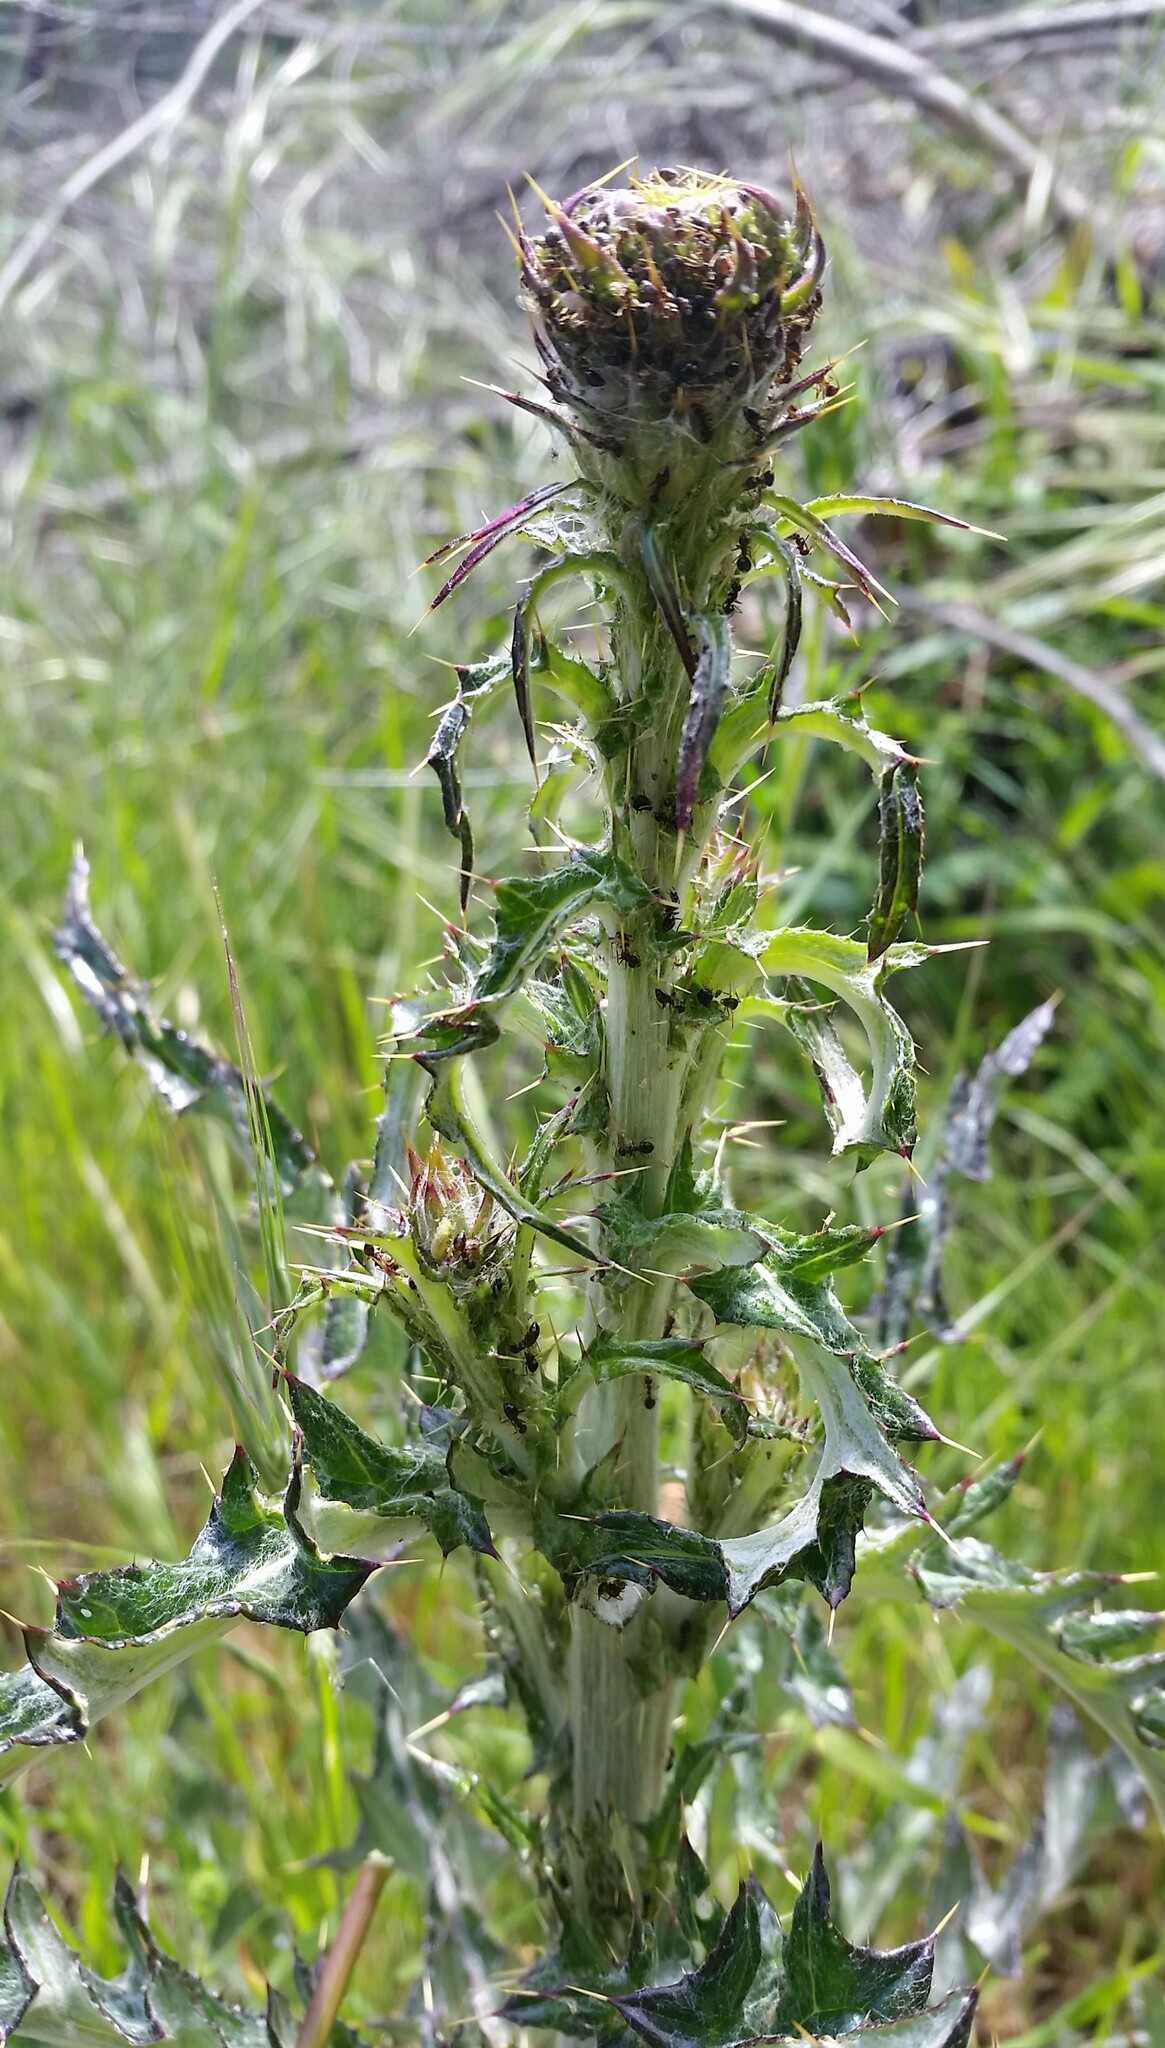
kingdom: Animalia
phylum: Arthropoda
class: Insecta
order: Hymenoptera
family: Formicidae
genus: Prenolepis
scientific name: Prenolepis imparis
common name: Small honey ant
